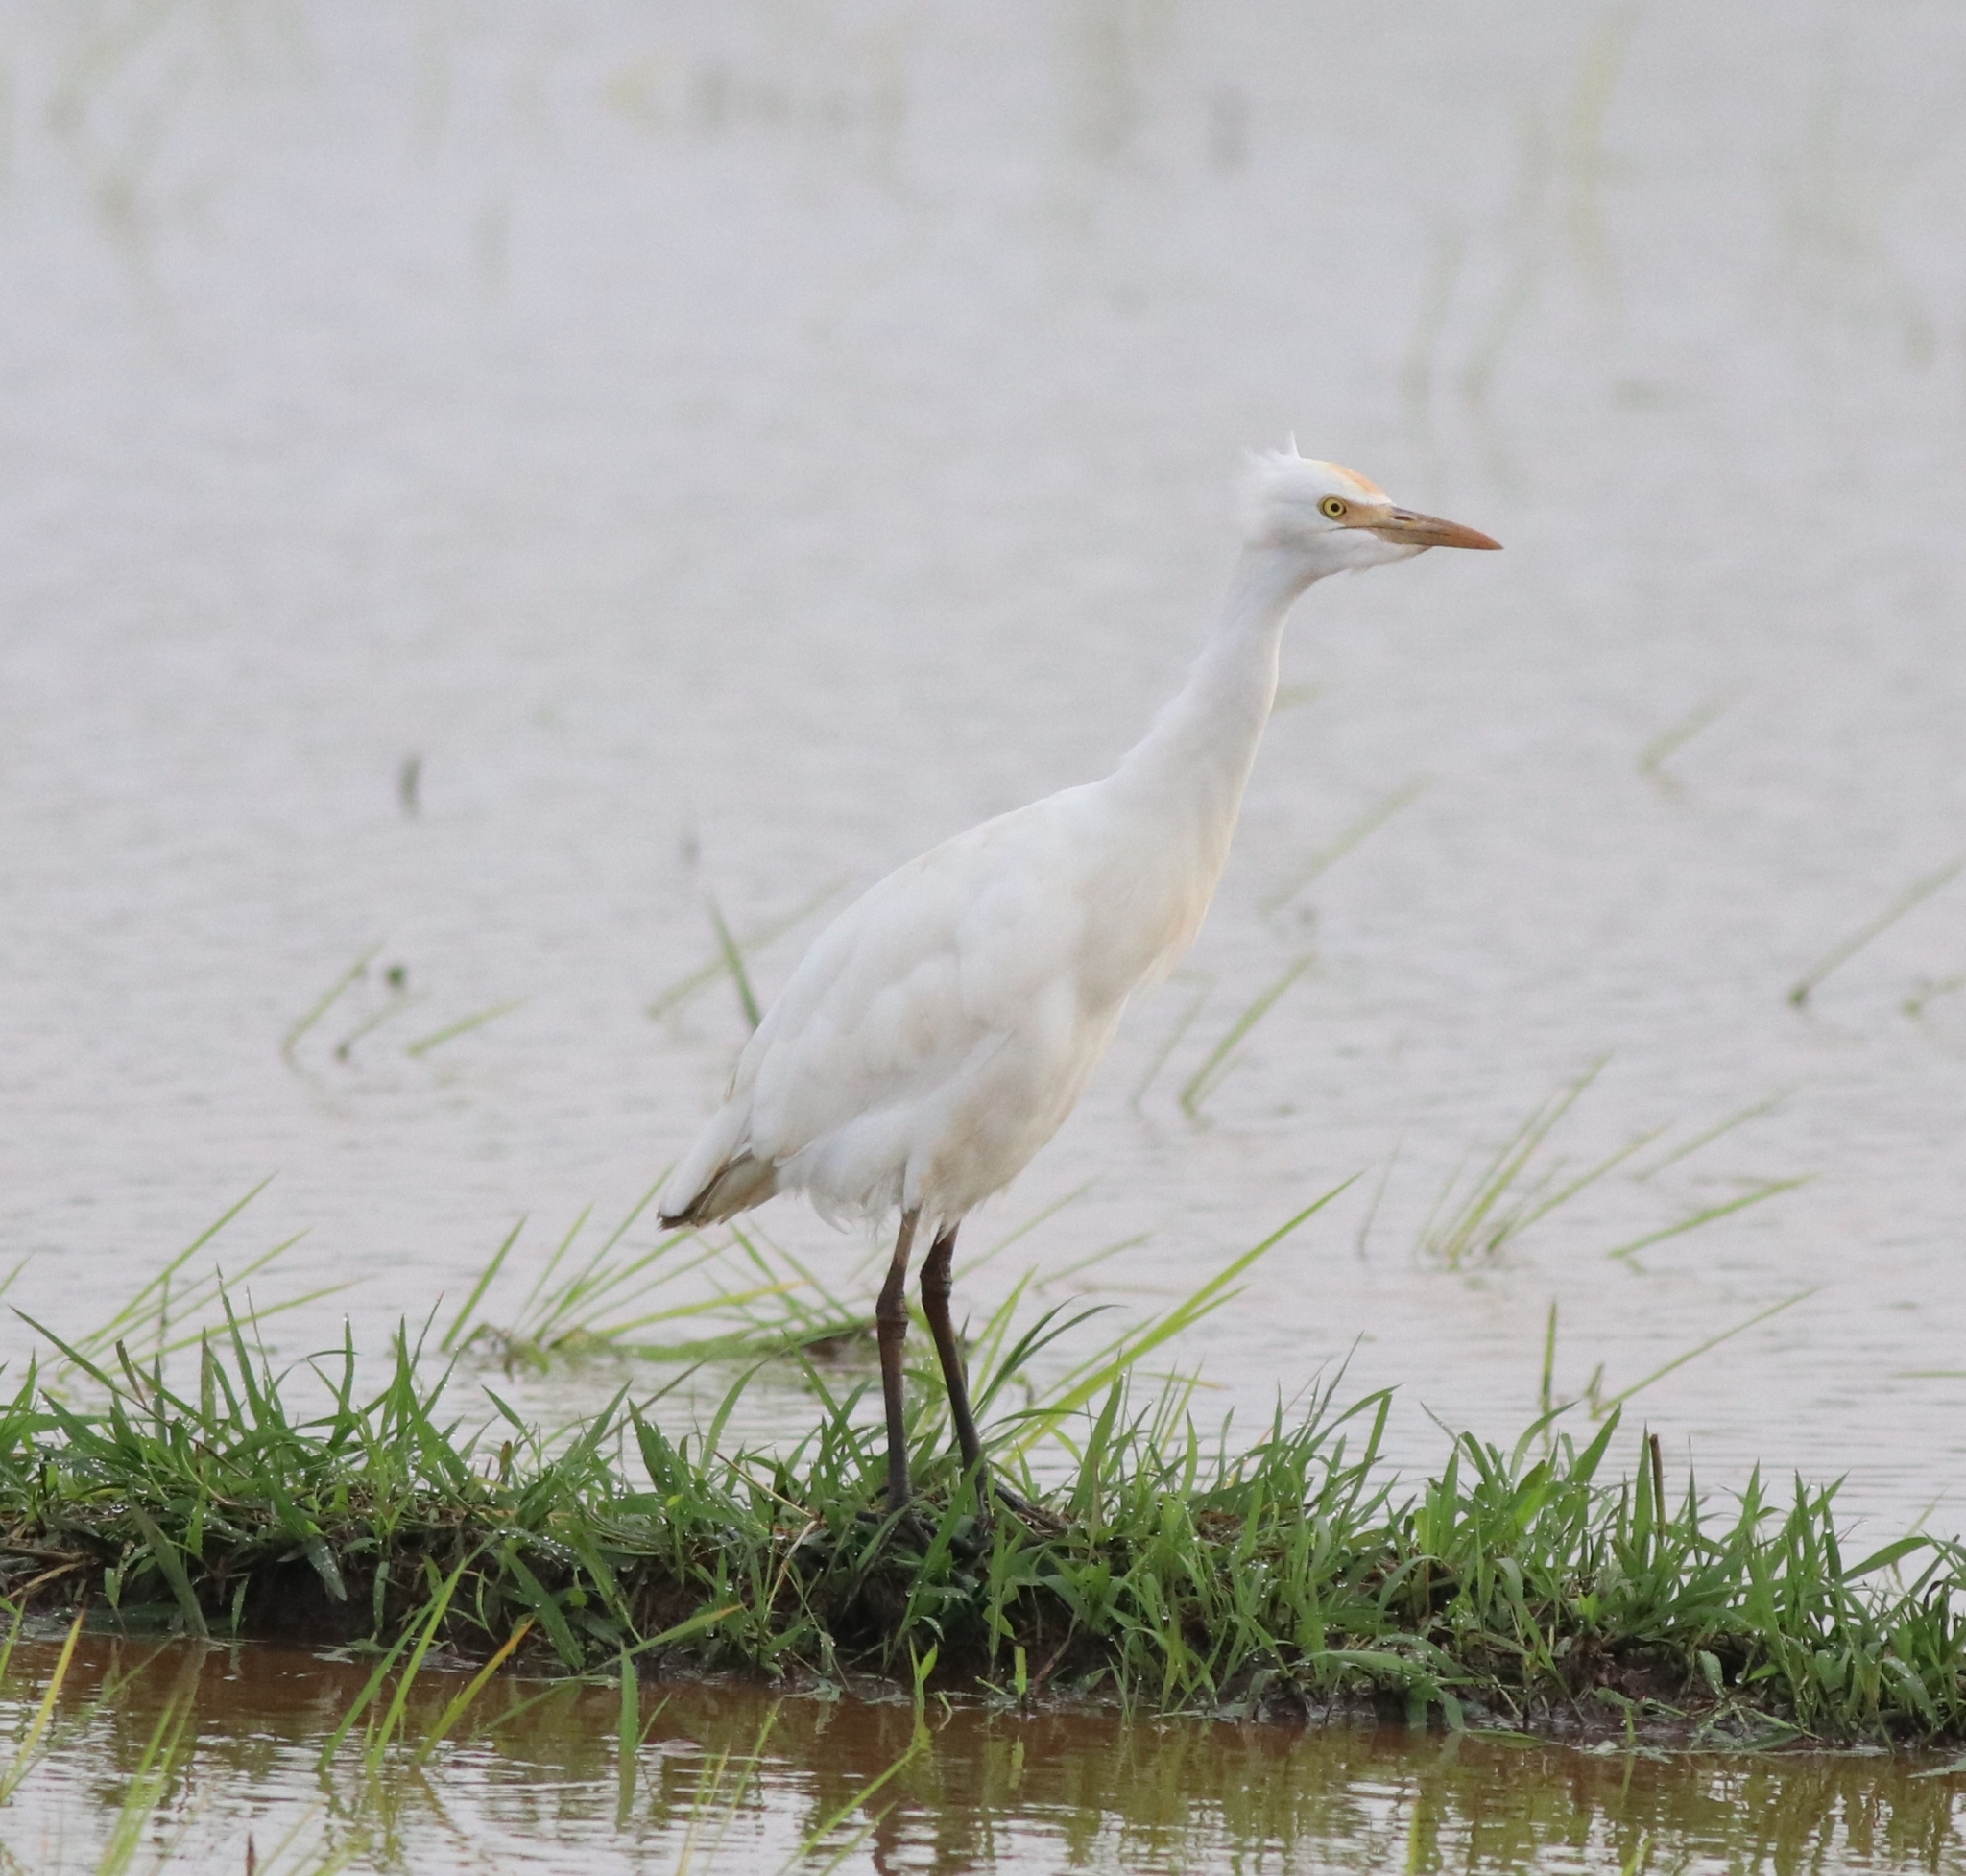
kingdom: Animalia
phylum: Chordata
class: Aves
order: Pelecaniformes
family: Ardeidae
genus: Bubulcus
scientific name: Bubulcus coromandus
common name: Eastern cattle egret
